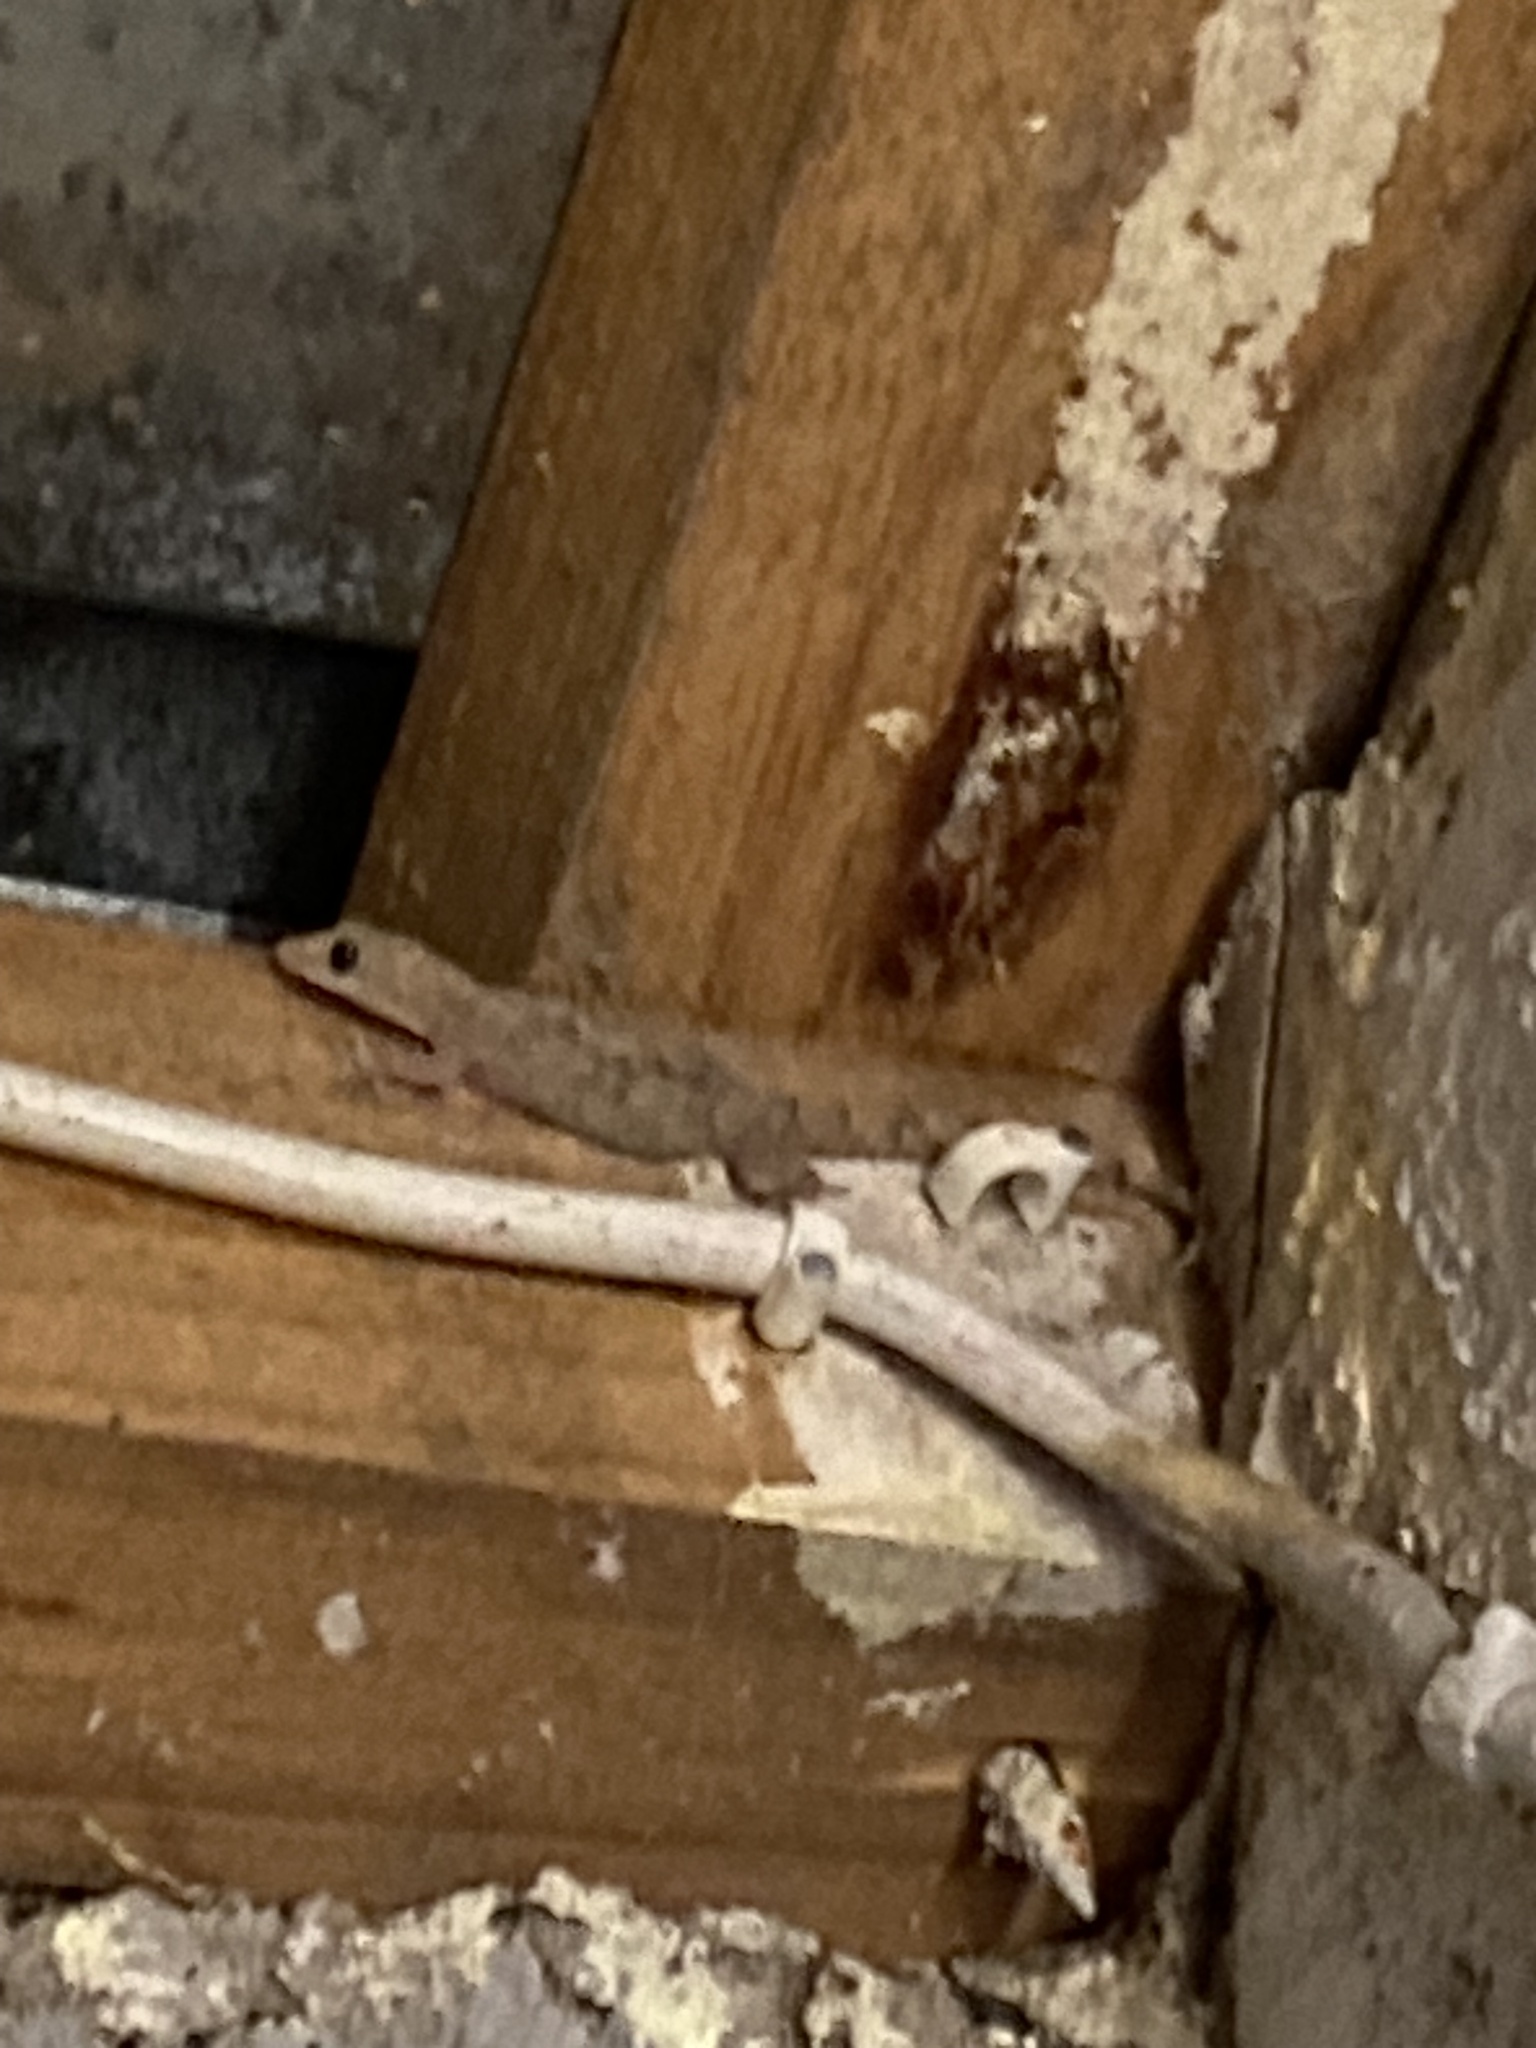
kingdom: Animalia
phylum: Chordata
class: Squamata
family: Gekkonidae
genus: Hemidactylus
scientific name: Hemidactylus mabouia
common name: House gecko
